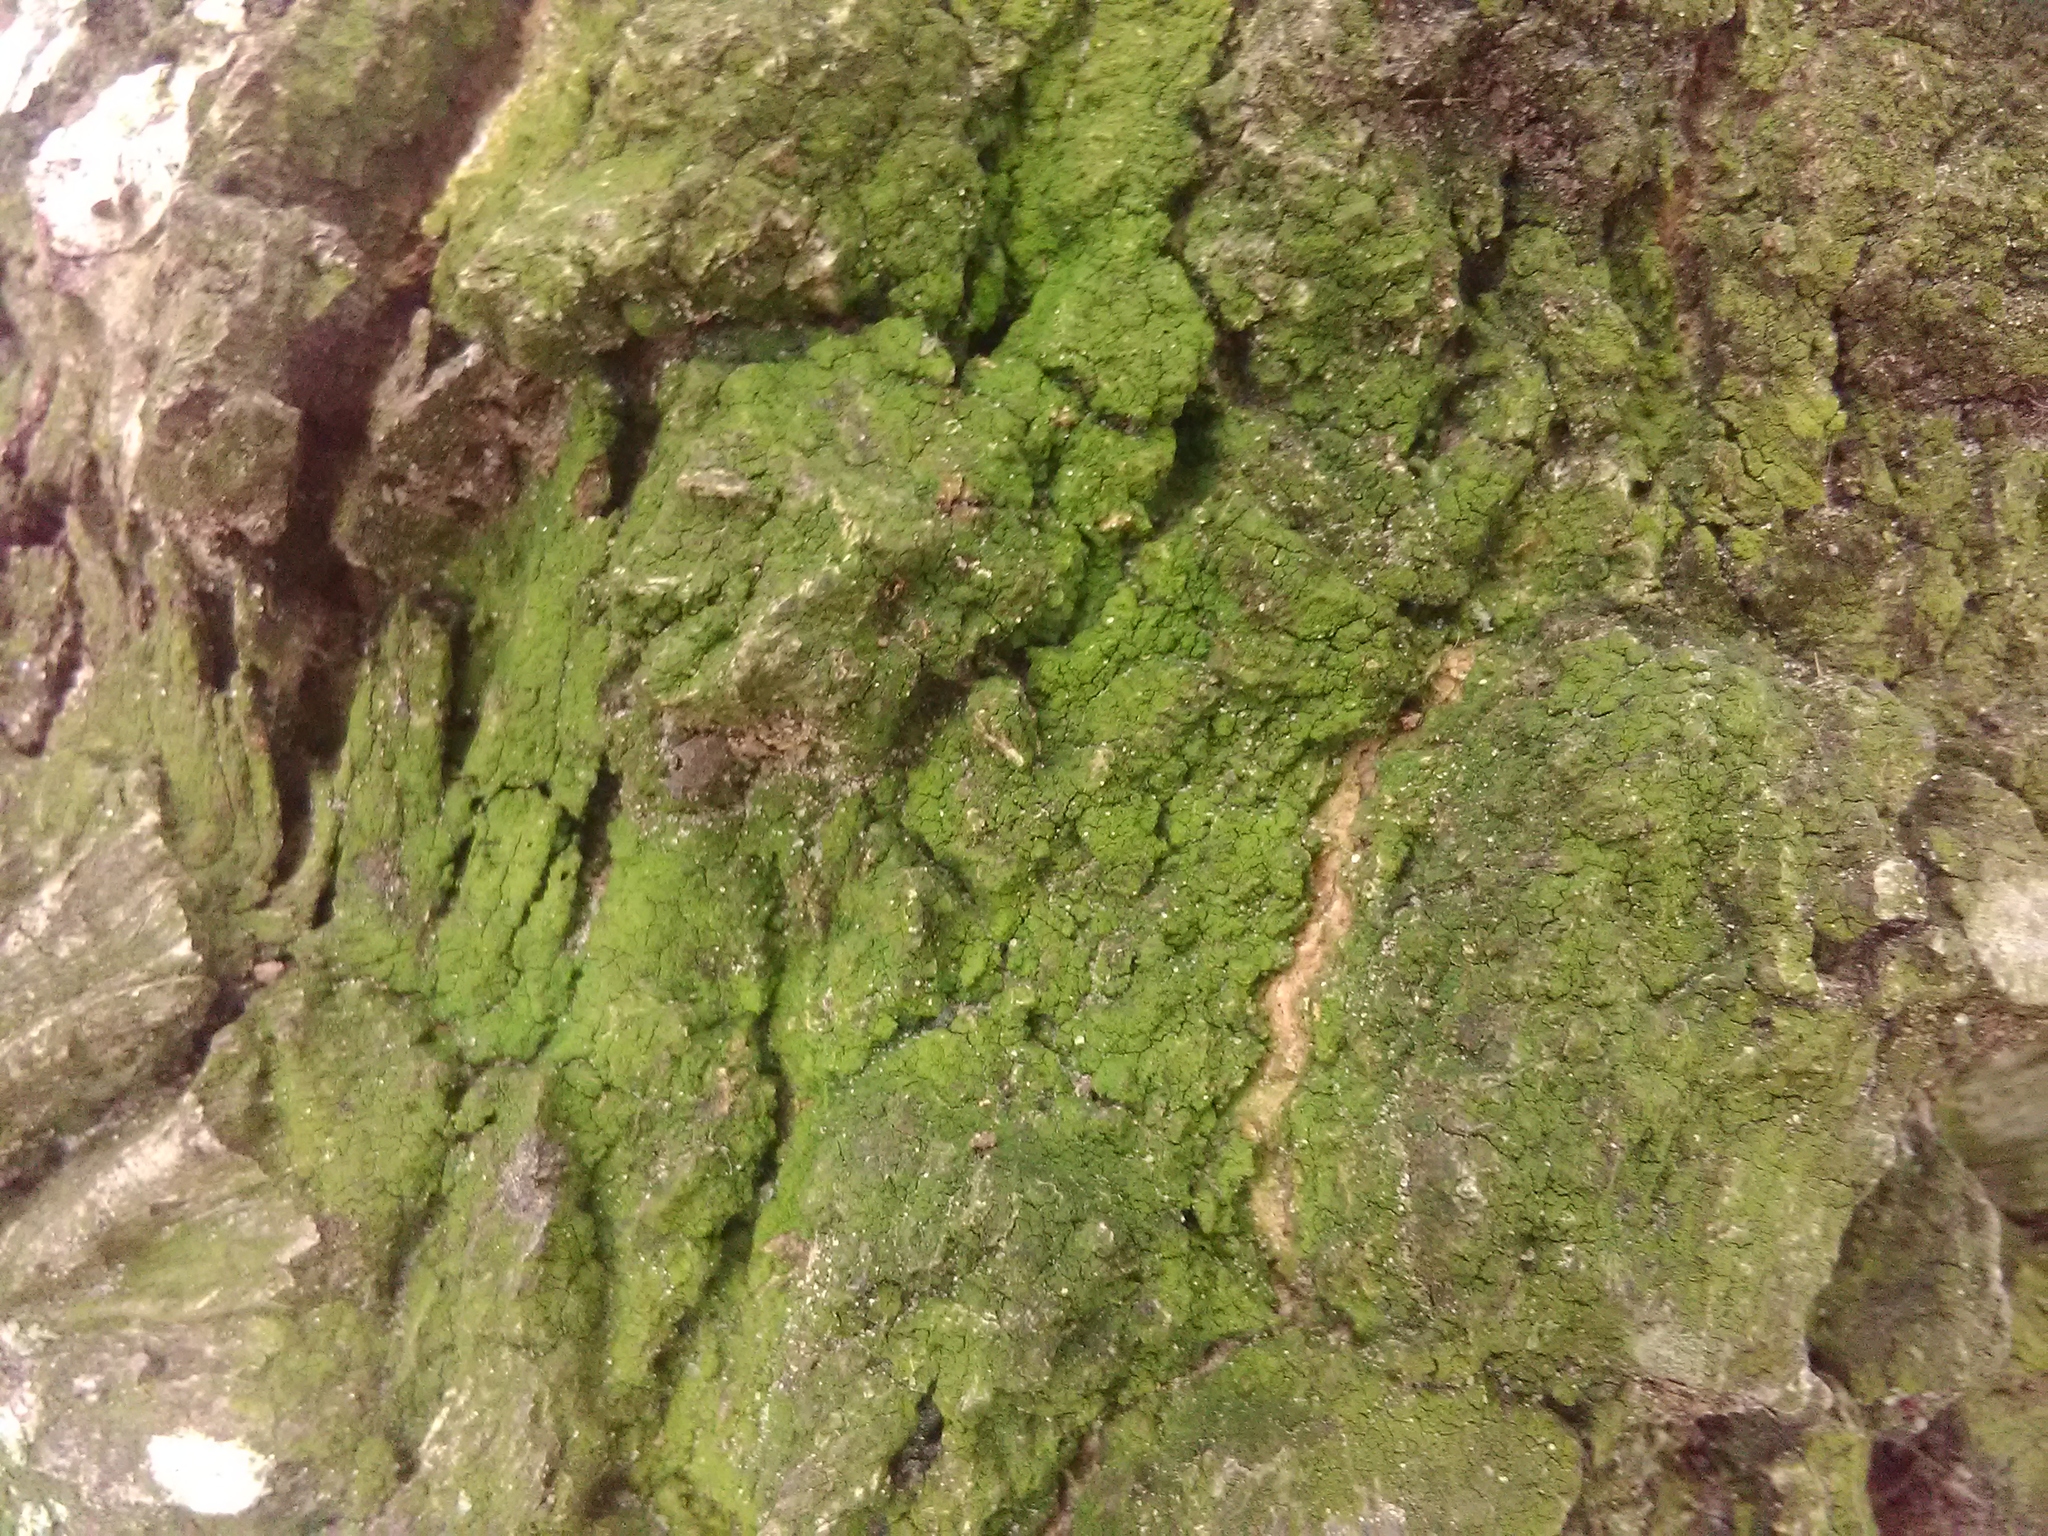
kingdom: Fungi
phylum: Ascomycota
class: Lecanoromycetes
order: Schaereriales
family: Schaereriaceae
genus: Ropalospora
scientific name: Ropalospora viridis
